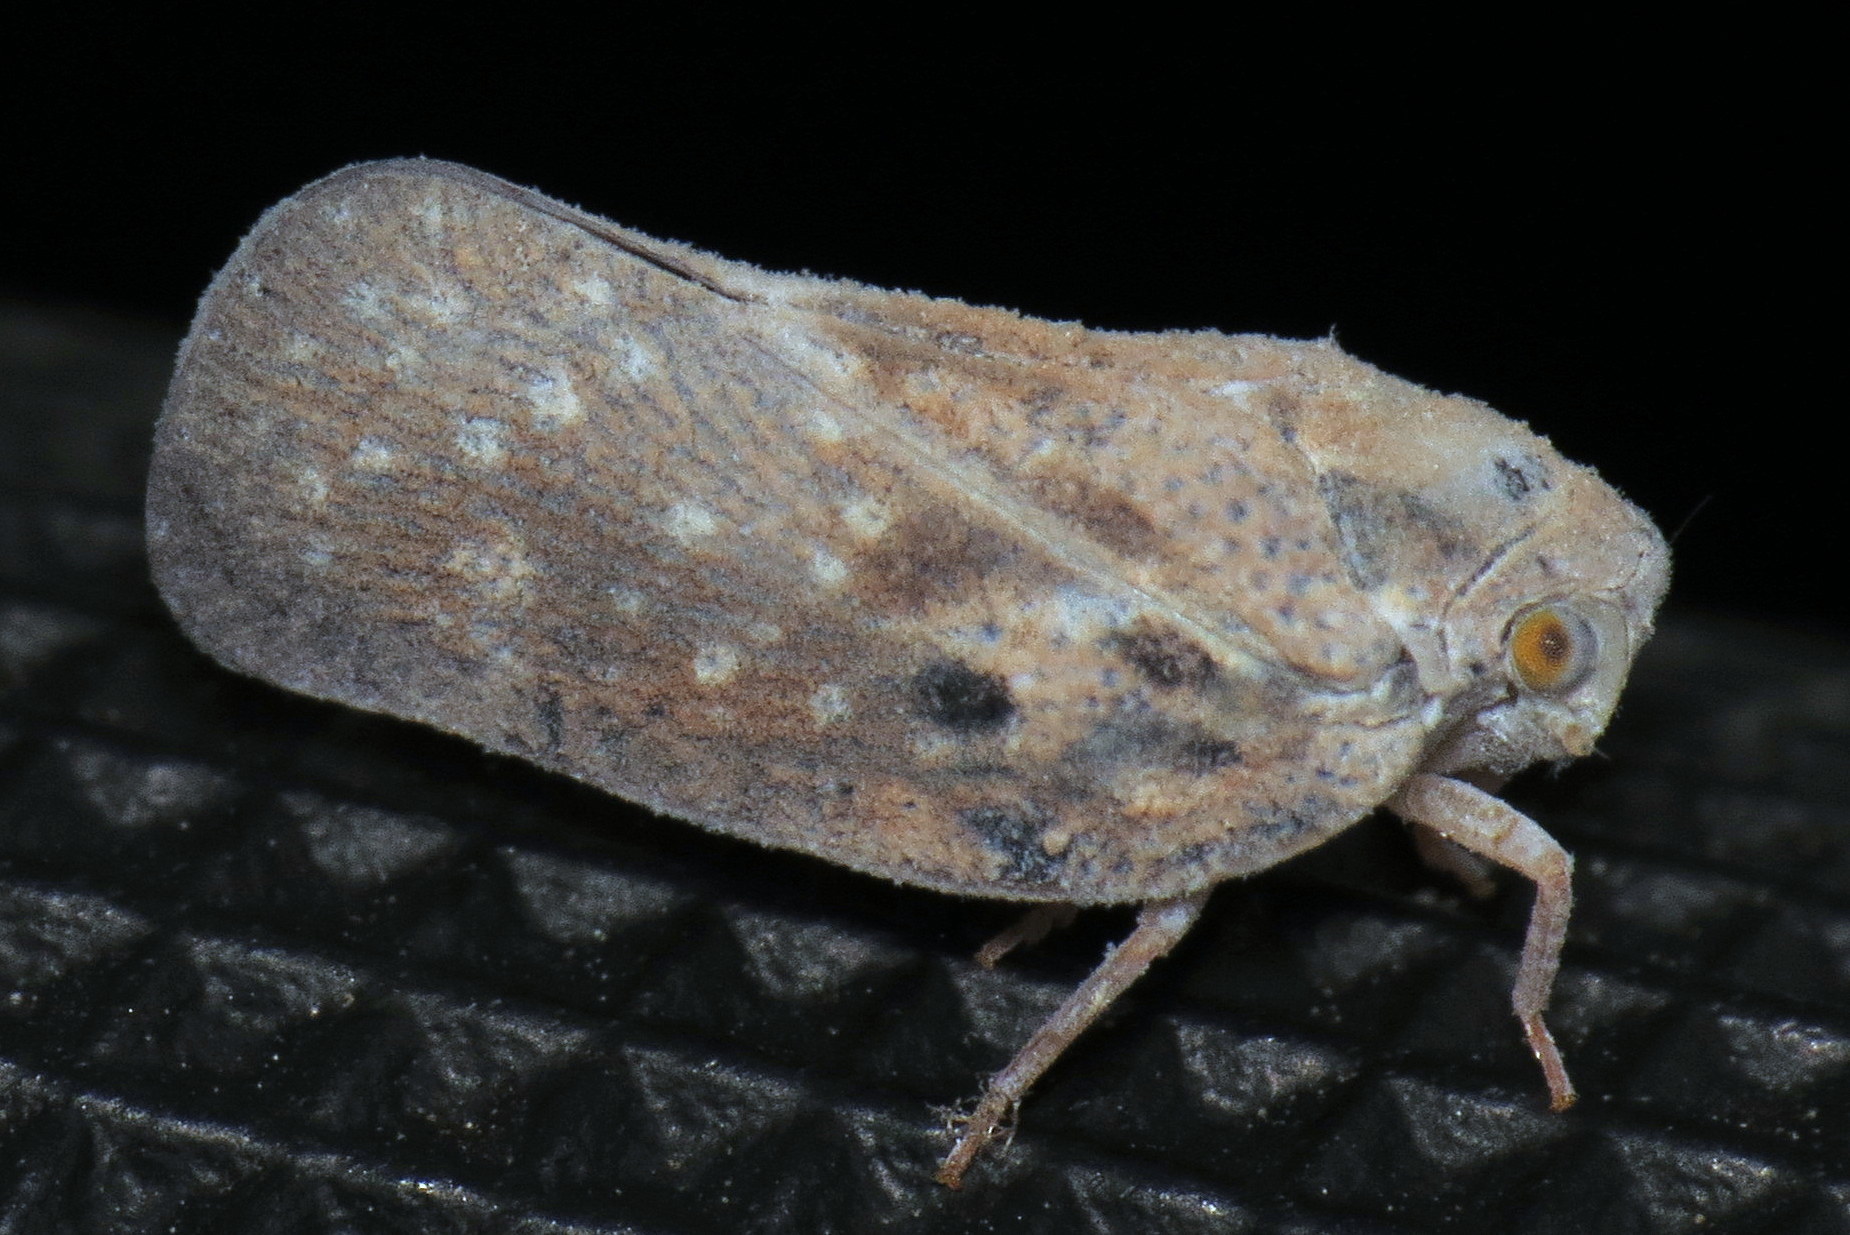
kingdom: Animalia
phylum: Arthropoda
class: Insecta
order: Hemiptera
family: Flatidae
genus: Metcalfa
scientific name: Metcalfa pruinosa
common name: Citrus flatid planthopper
